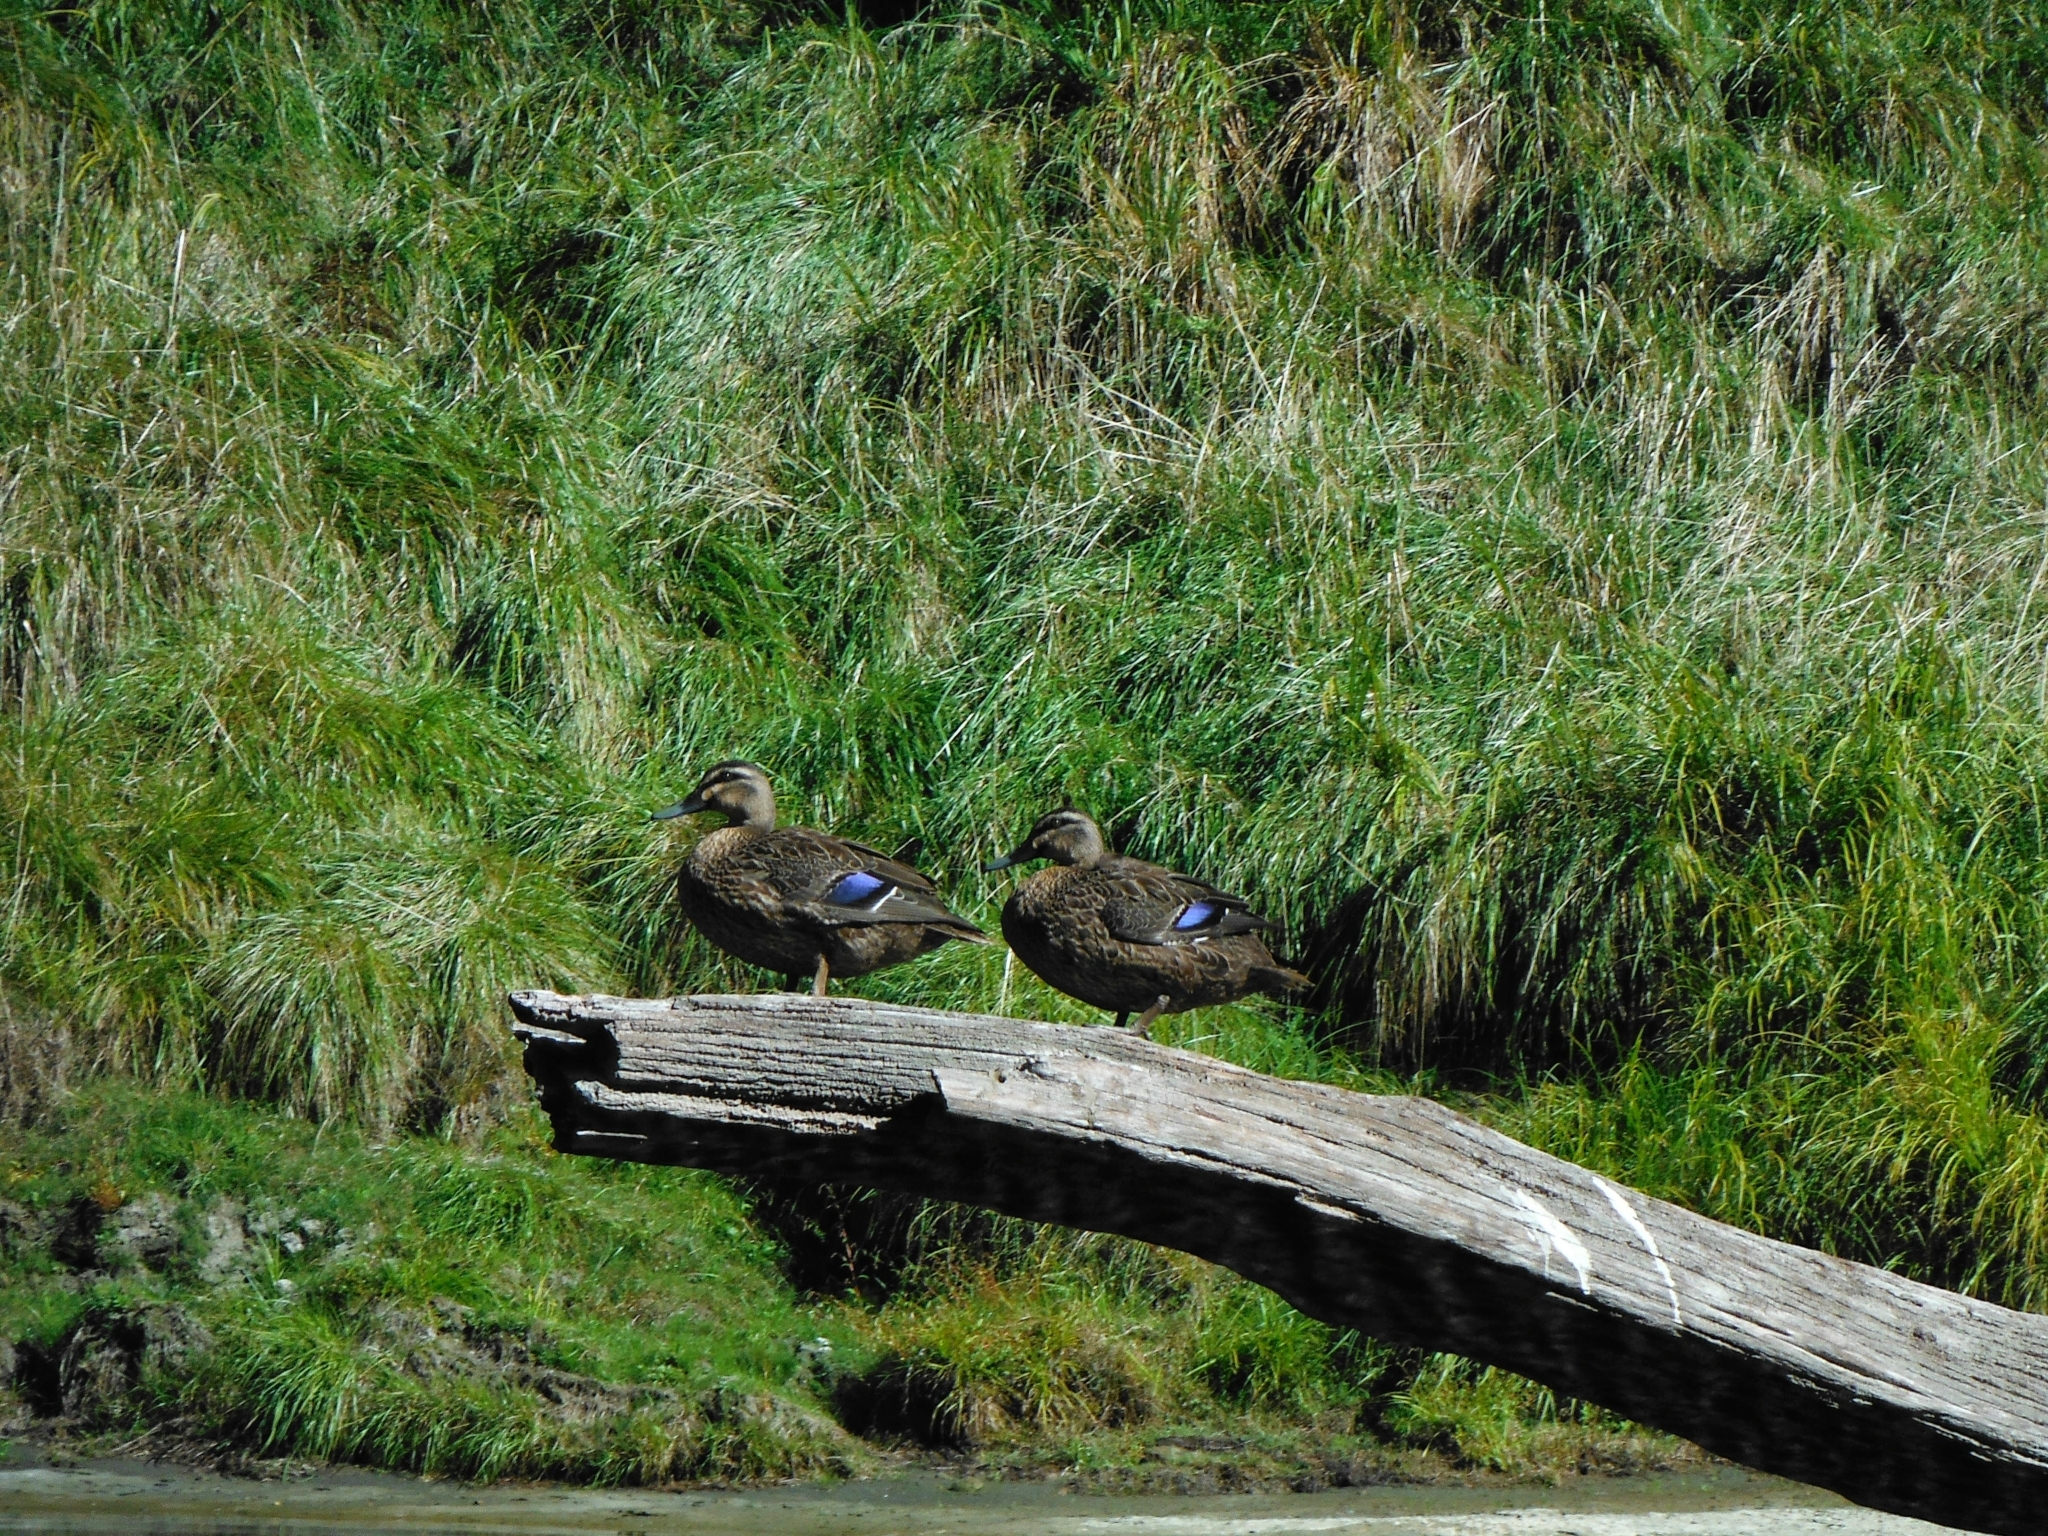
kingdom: Animalia
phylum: Chordata
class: Aves
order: Anseriformes
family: Anatidae
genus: Anas
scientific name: Anas
